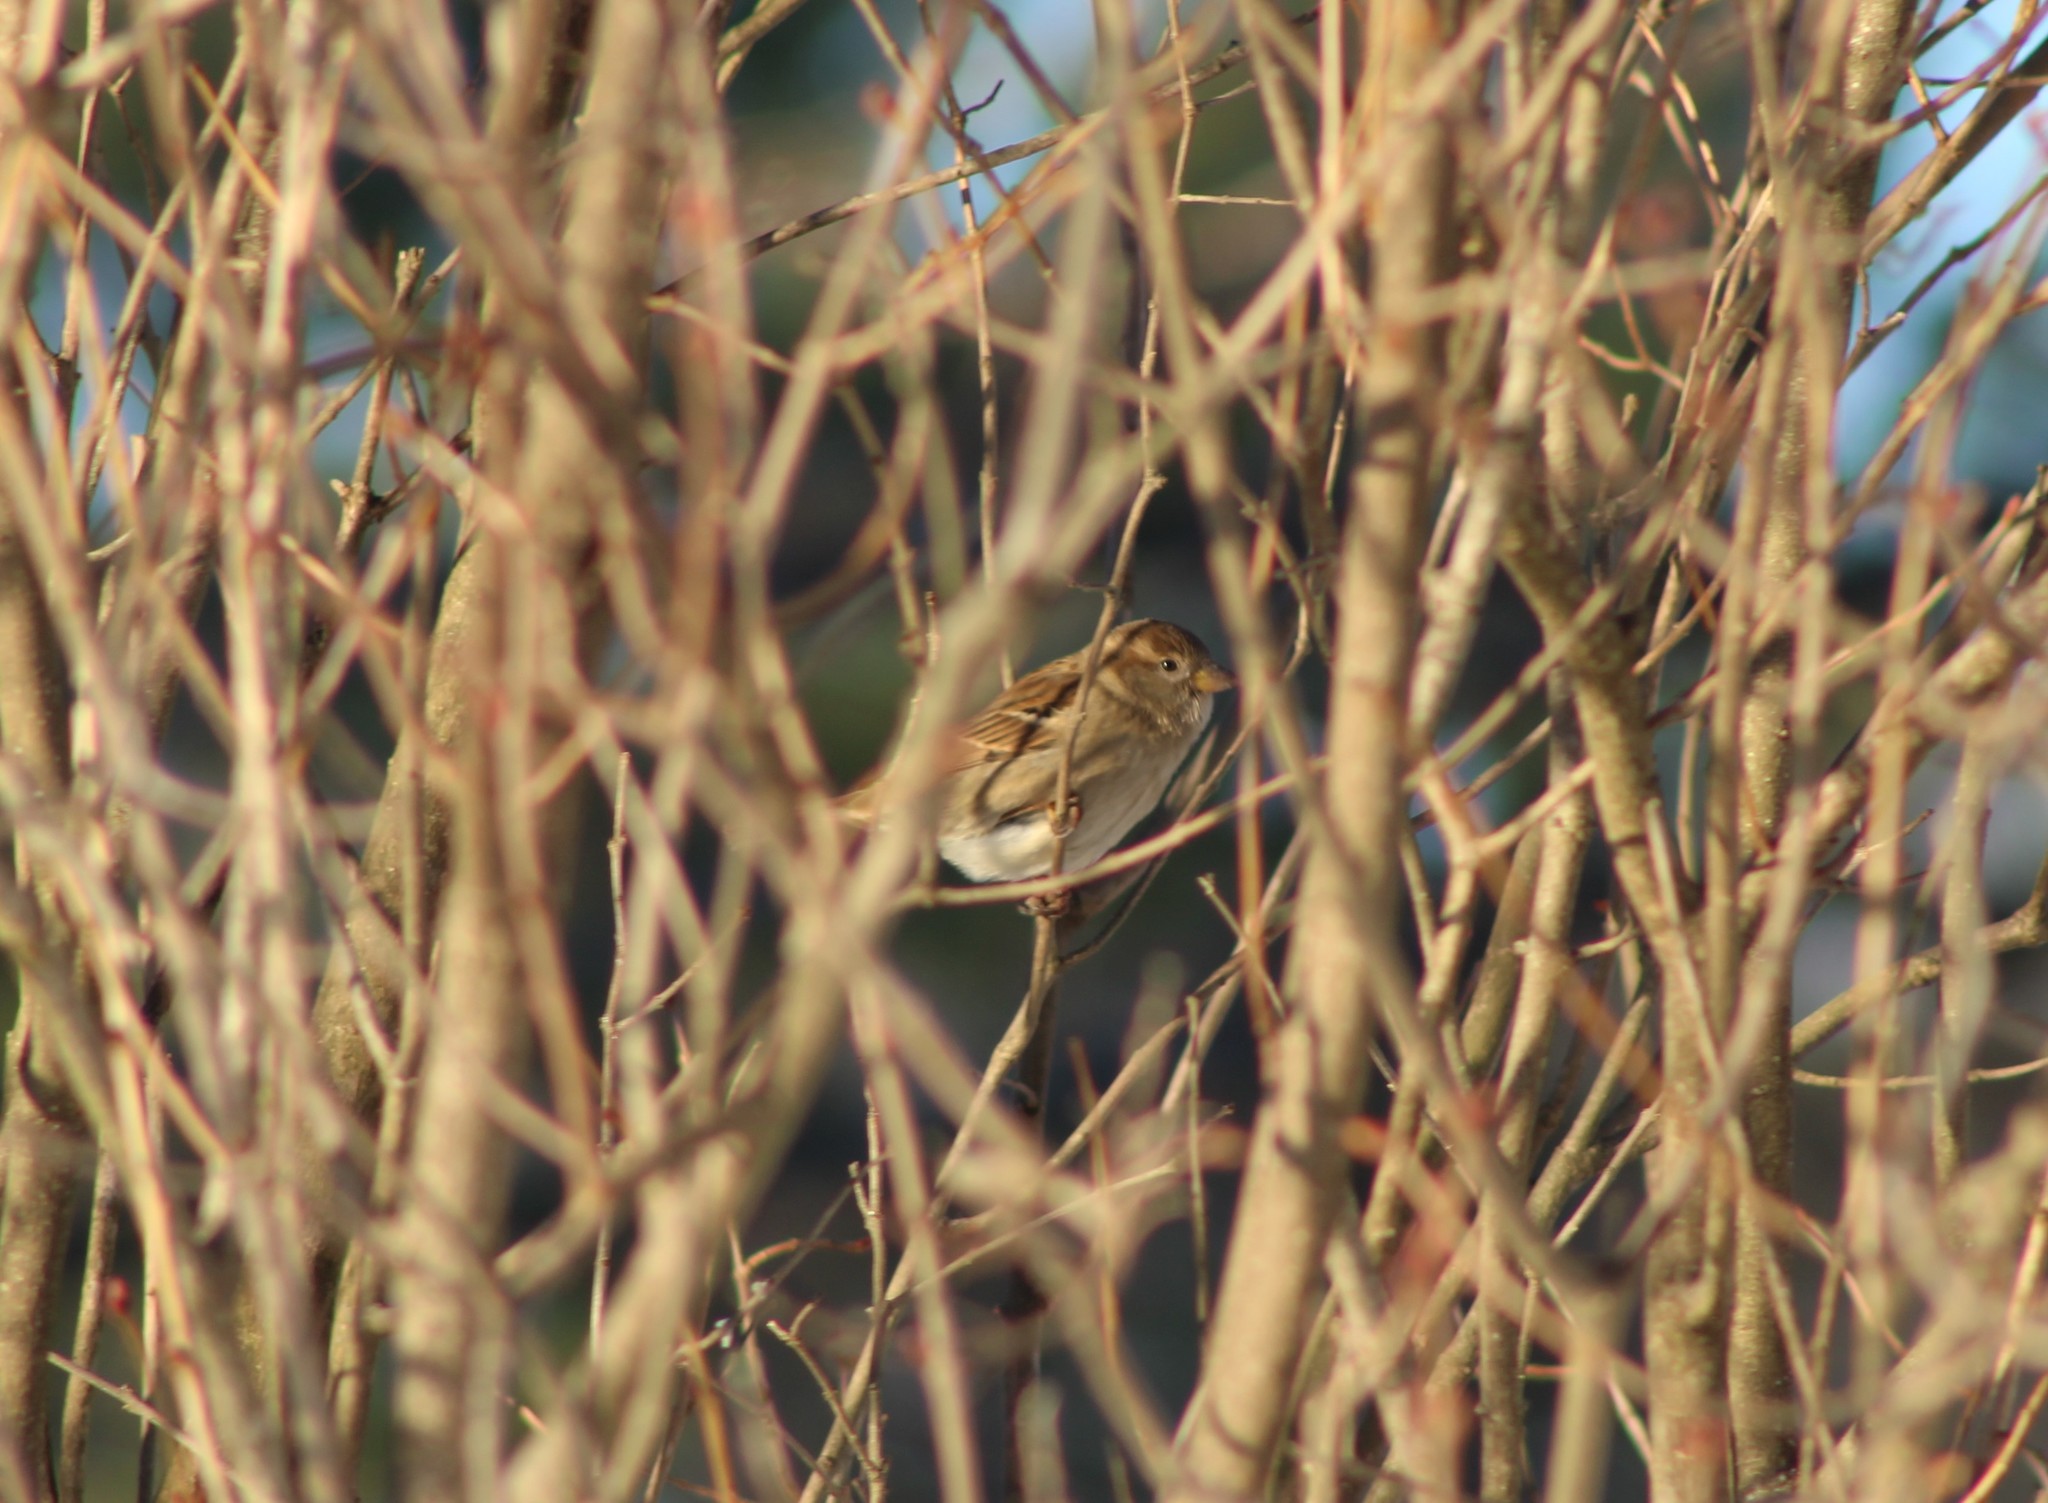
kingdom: Animalia
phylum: Chordata
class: Aves
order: Passeriformes
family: Passeridae
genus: Passer
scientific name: Passer domesticus
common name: House sparrow
